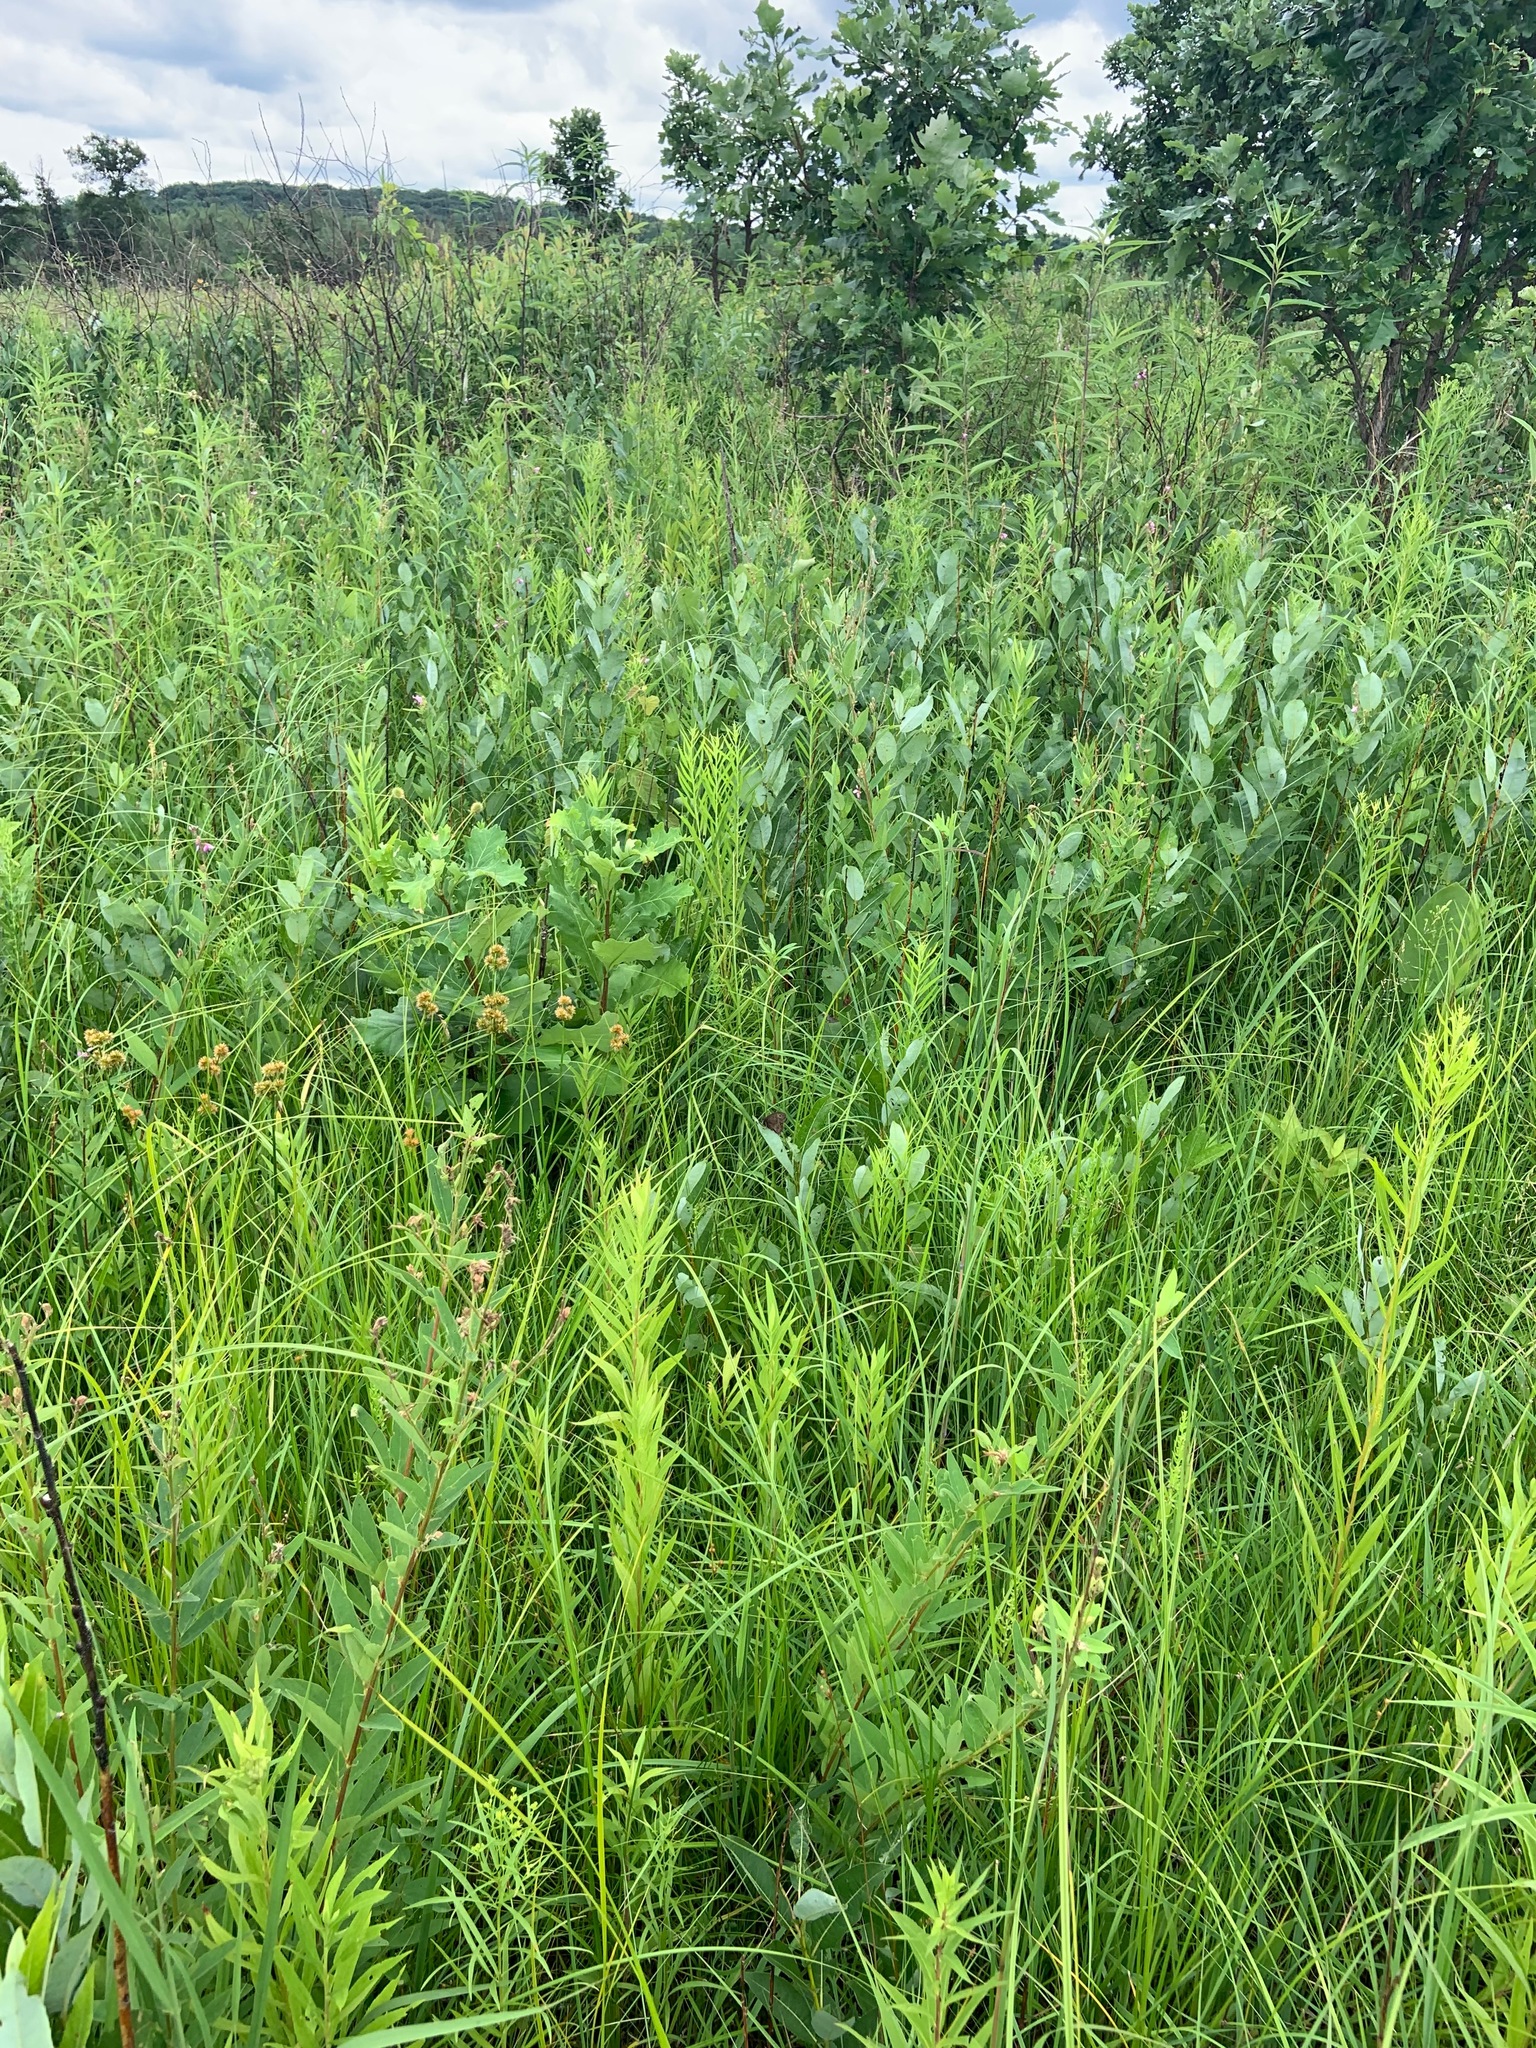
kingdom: Animalia
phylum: Arthropoda
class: Insecta
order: Lepidoptera
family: Nymphalidae
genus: Cercyonis
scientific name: Cercyonis pegala
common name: Common wood-nymph
